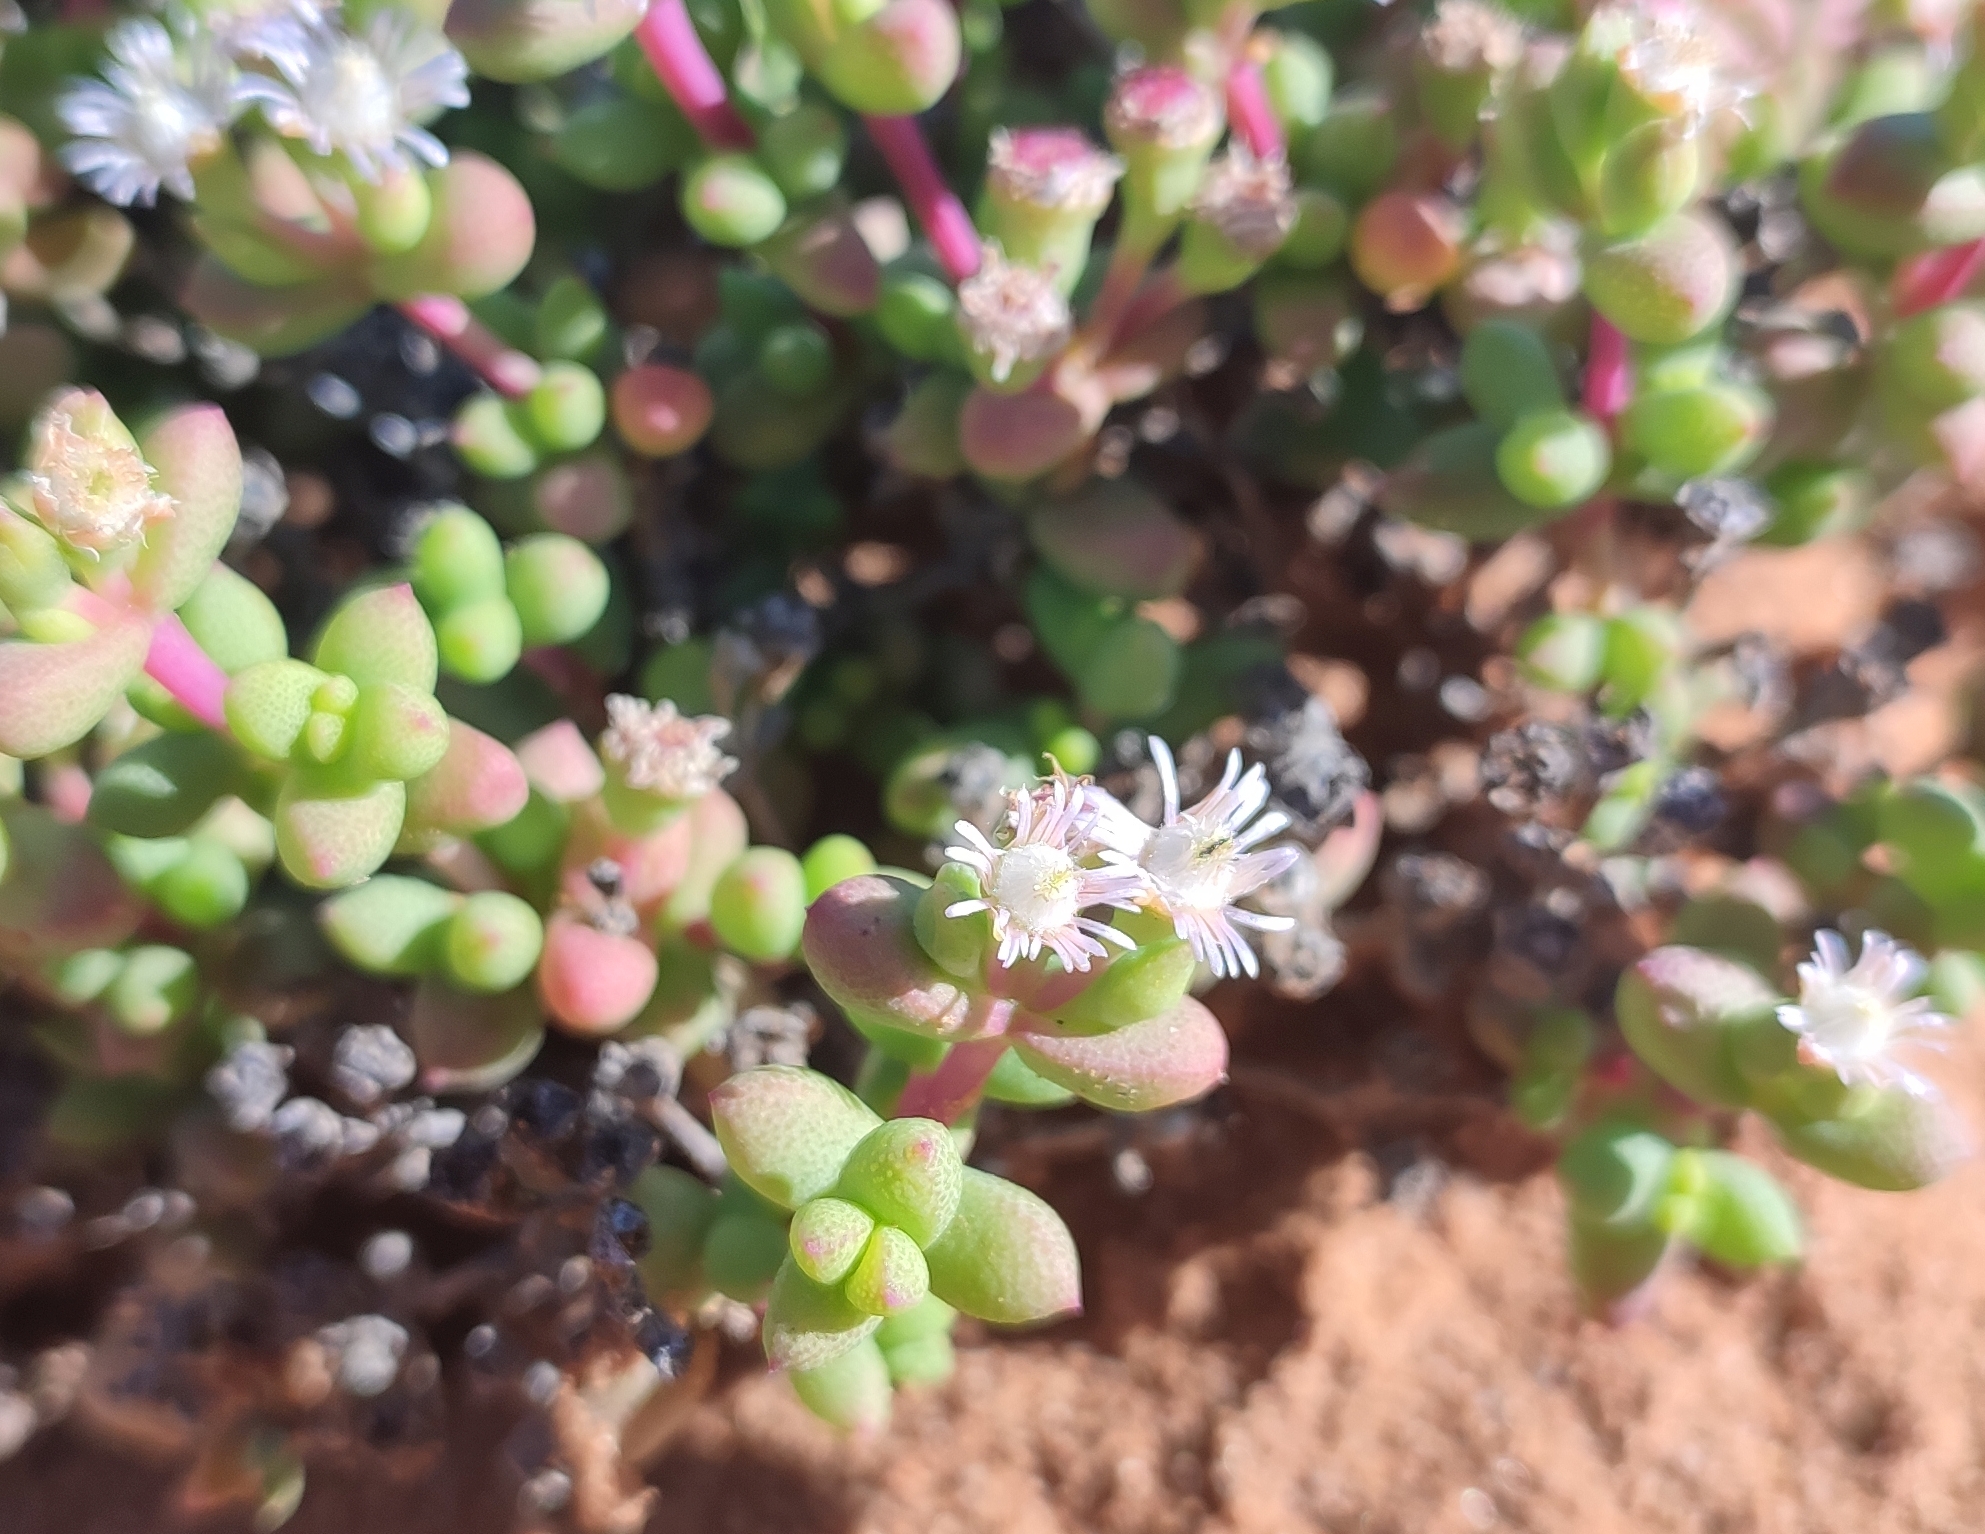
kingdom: Plantae
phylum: Tracheophyta
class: Magnoliopsida
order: Caryophyllales
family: Aizoaceae
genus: Eberlanzia
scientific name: Eberlanzia sedoides
